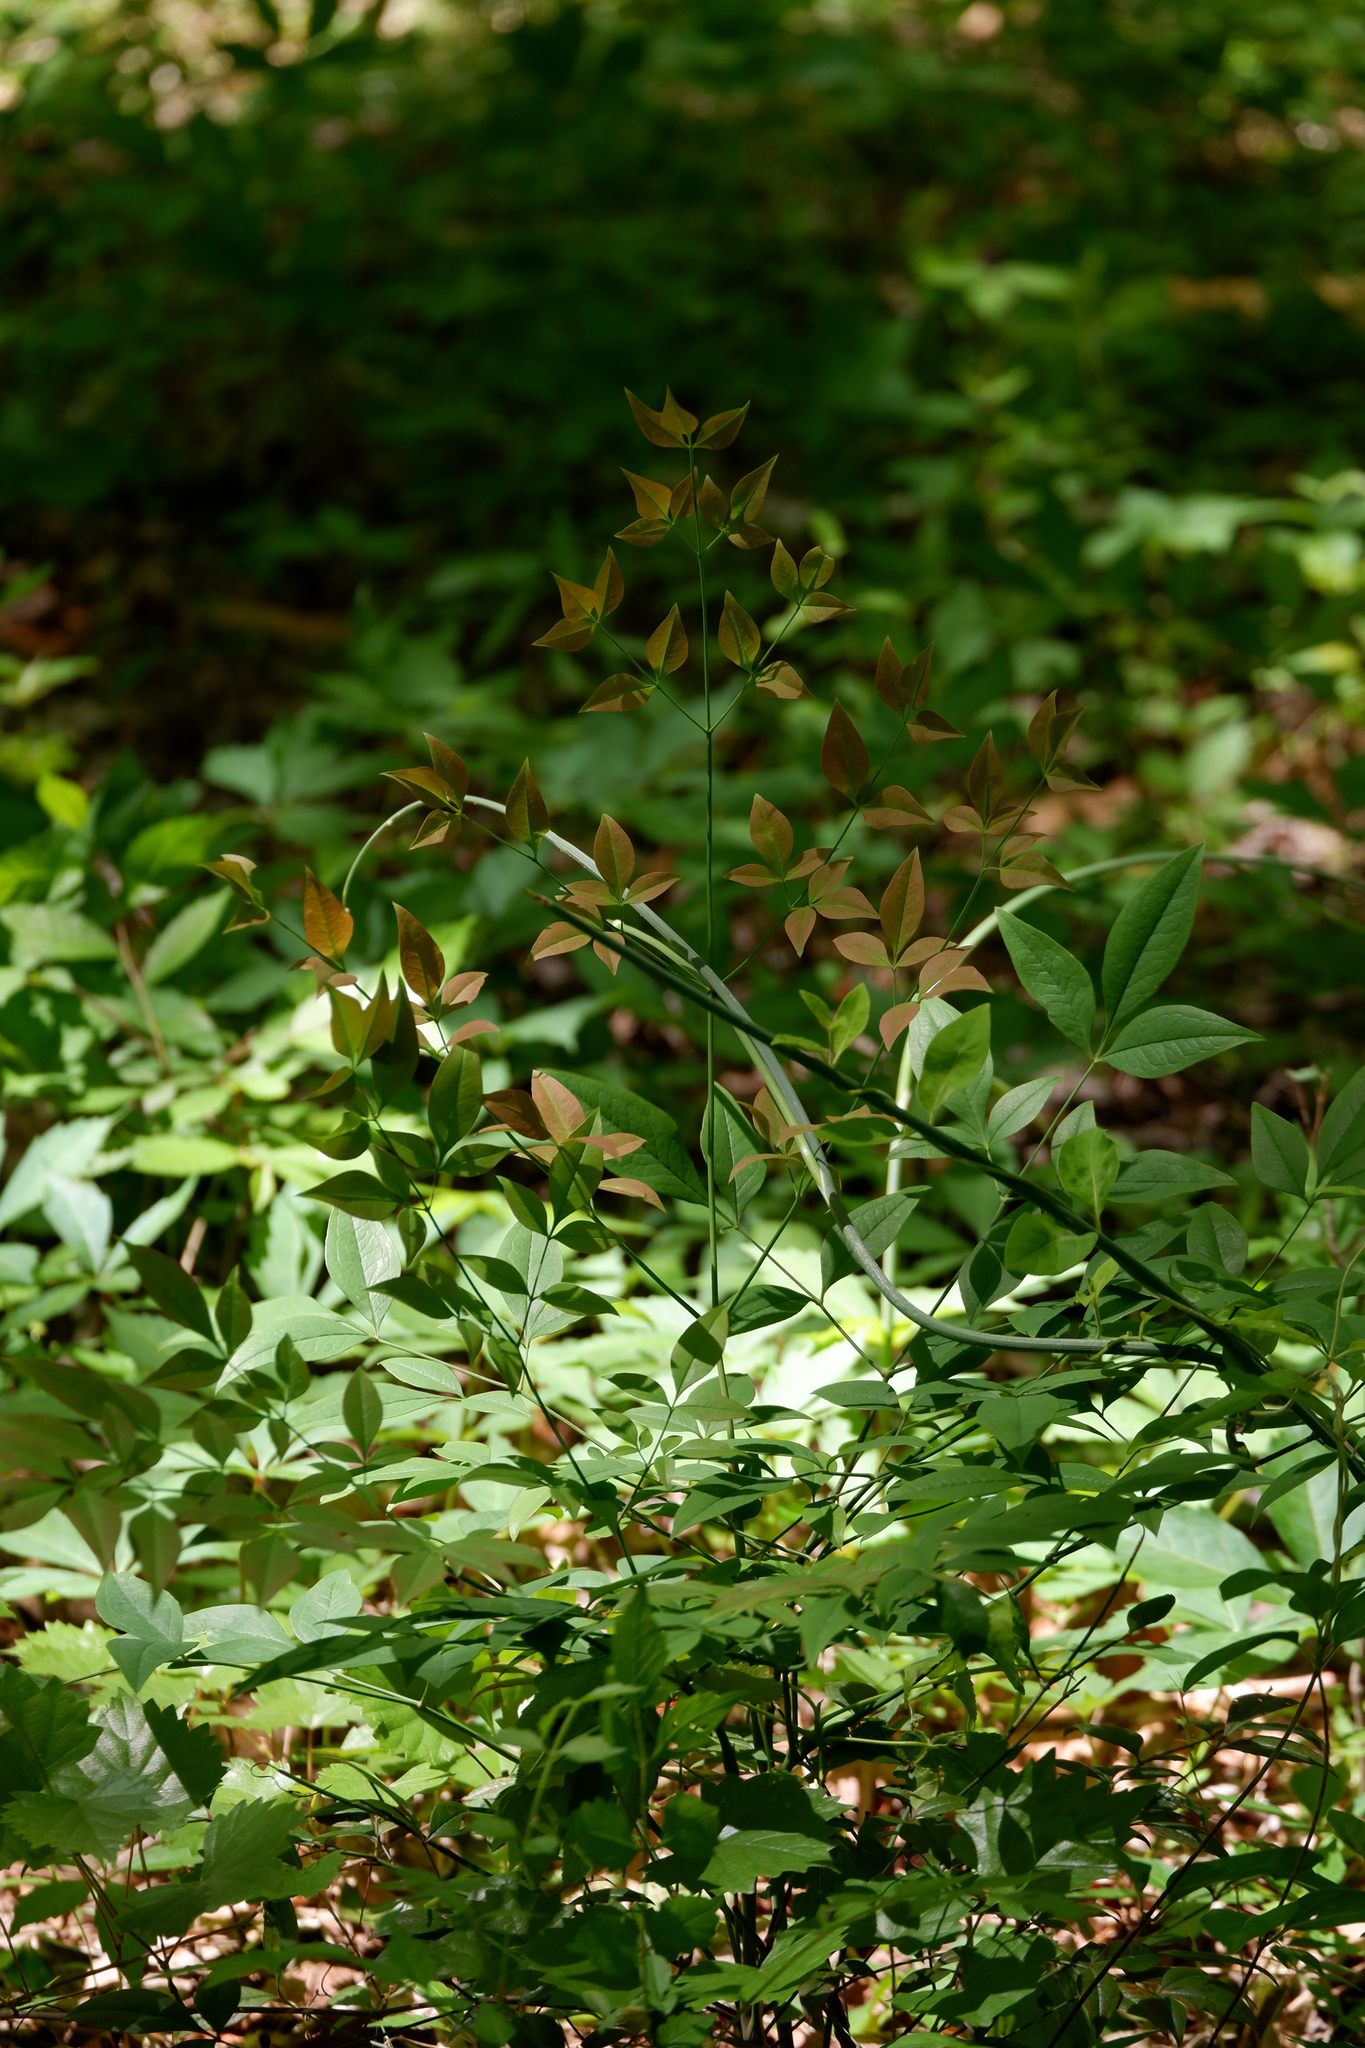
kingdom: Plantae
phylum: Tracheophyta
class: Magnoliopsida
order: Ranunculales
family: Berberidaceae
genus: Nandina
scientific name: Nandina domestica
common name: Sacred bamboo
